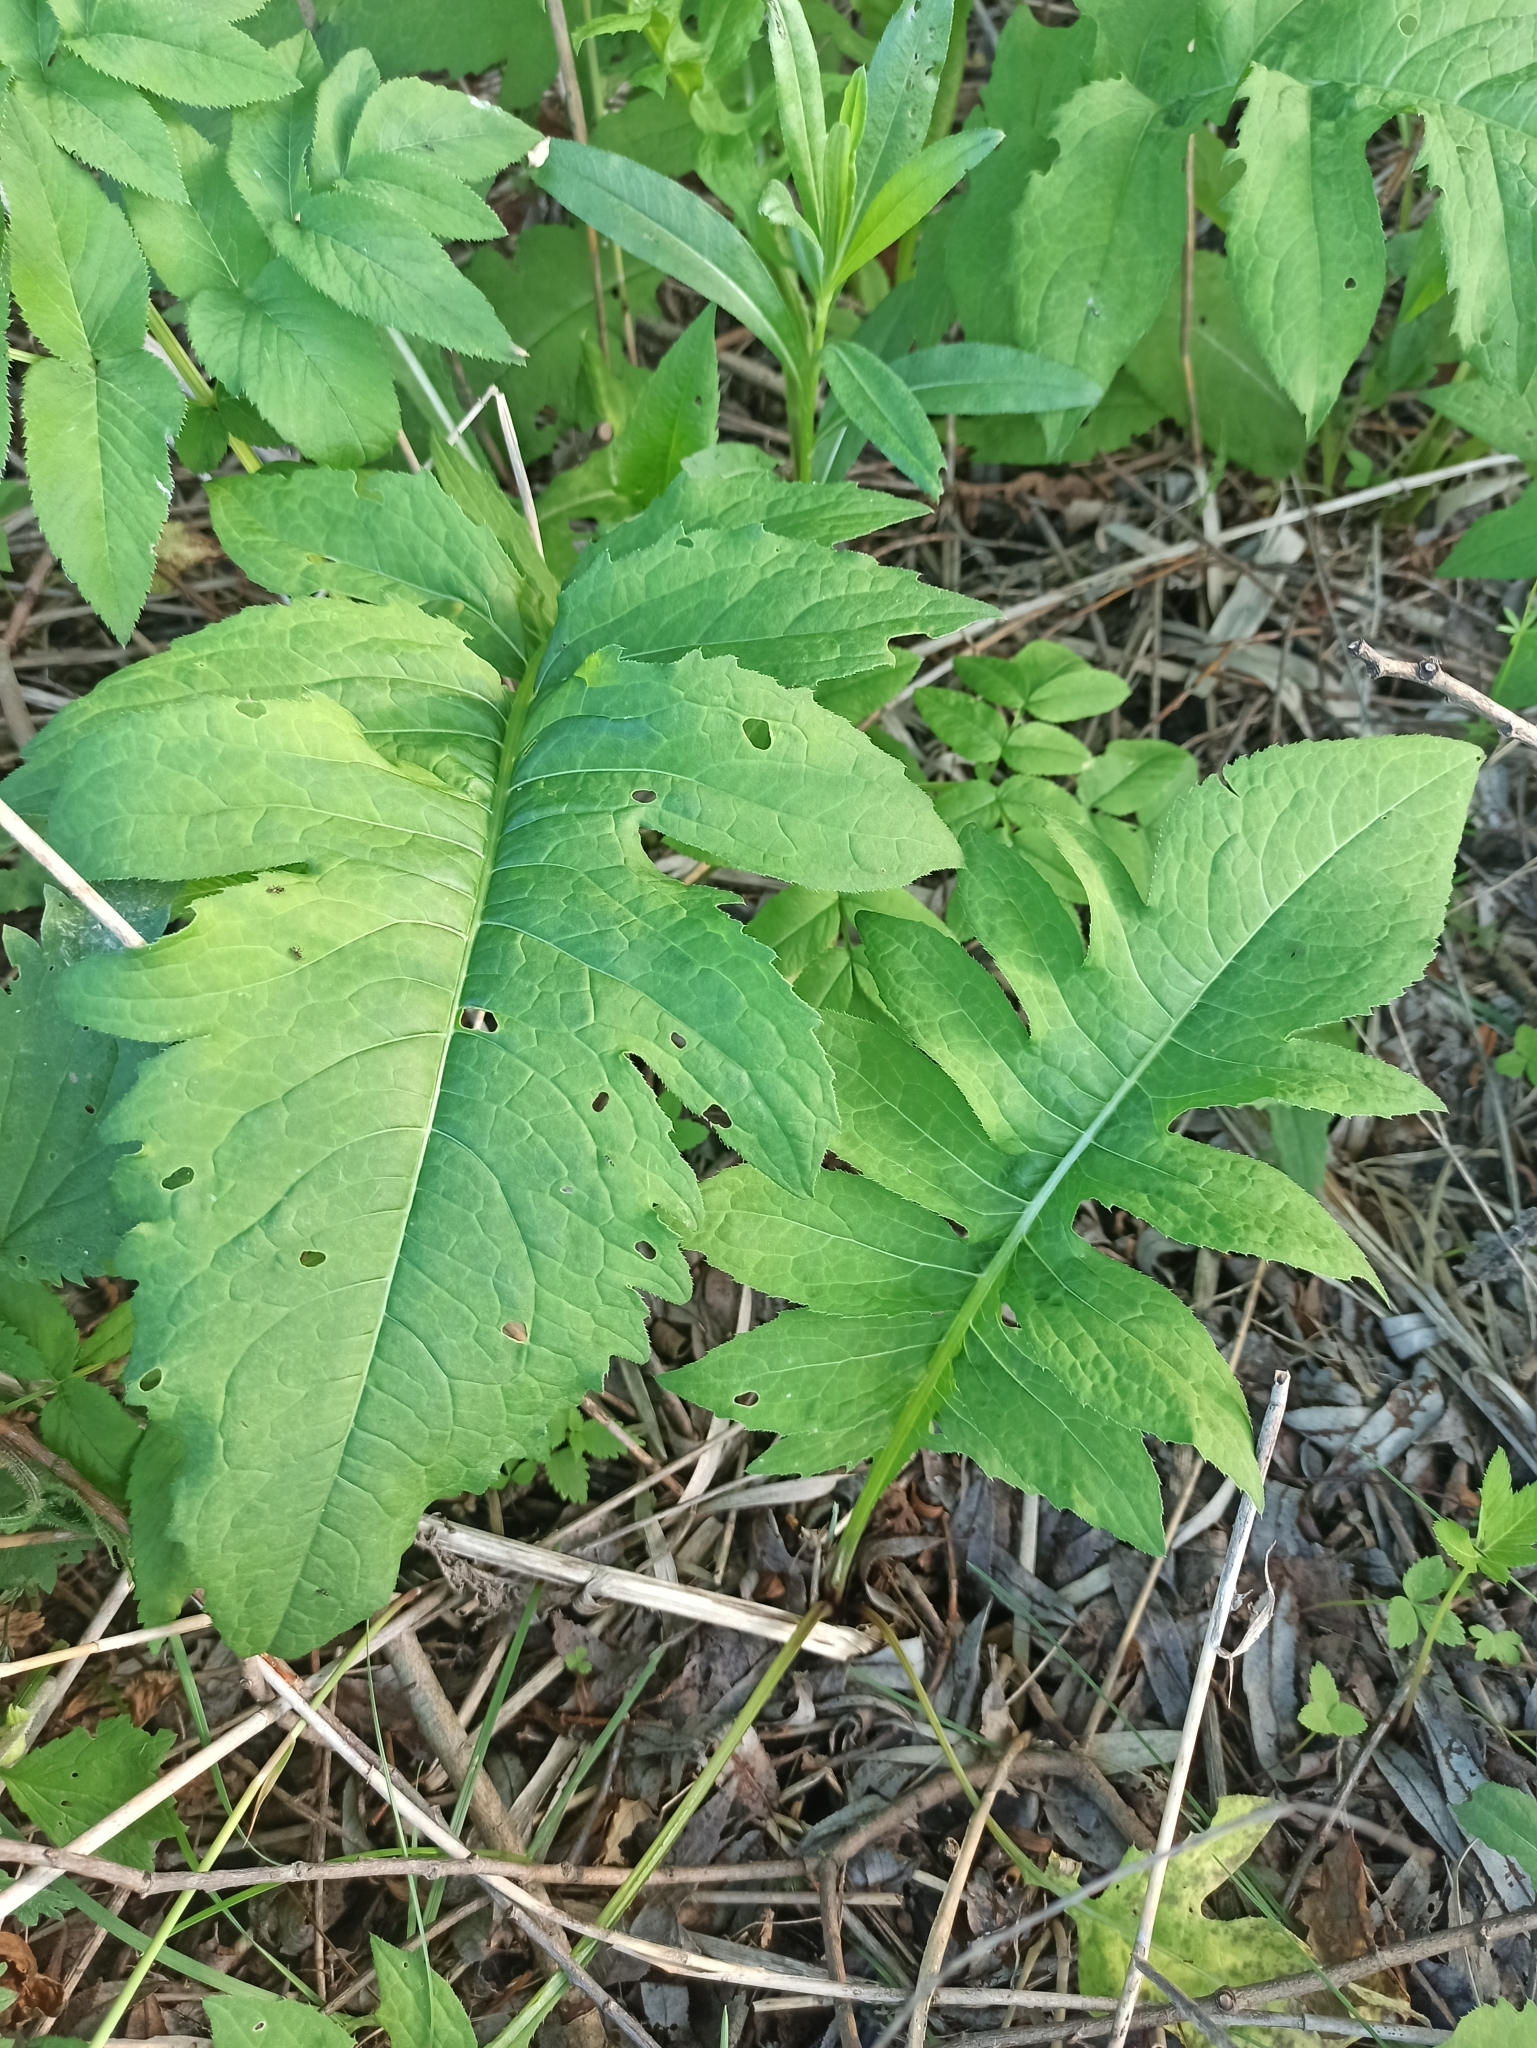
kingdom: Plantae
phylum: Tracheophyta
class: Magnoliopsida
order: Asterales
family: Asteraceae
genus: Cirsium
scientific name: Cirsium oleraceum
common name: Cabbage thistle
